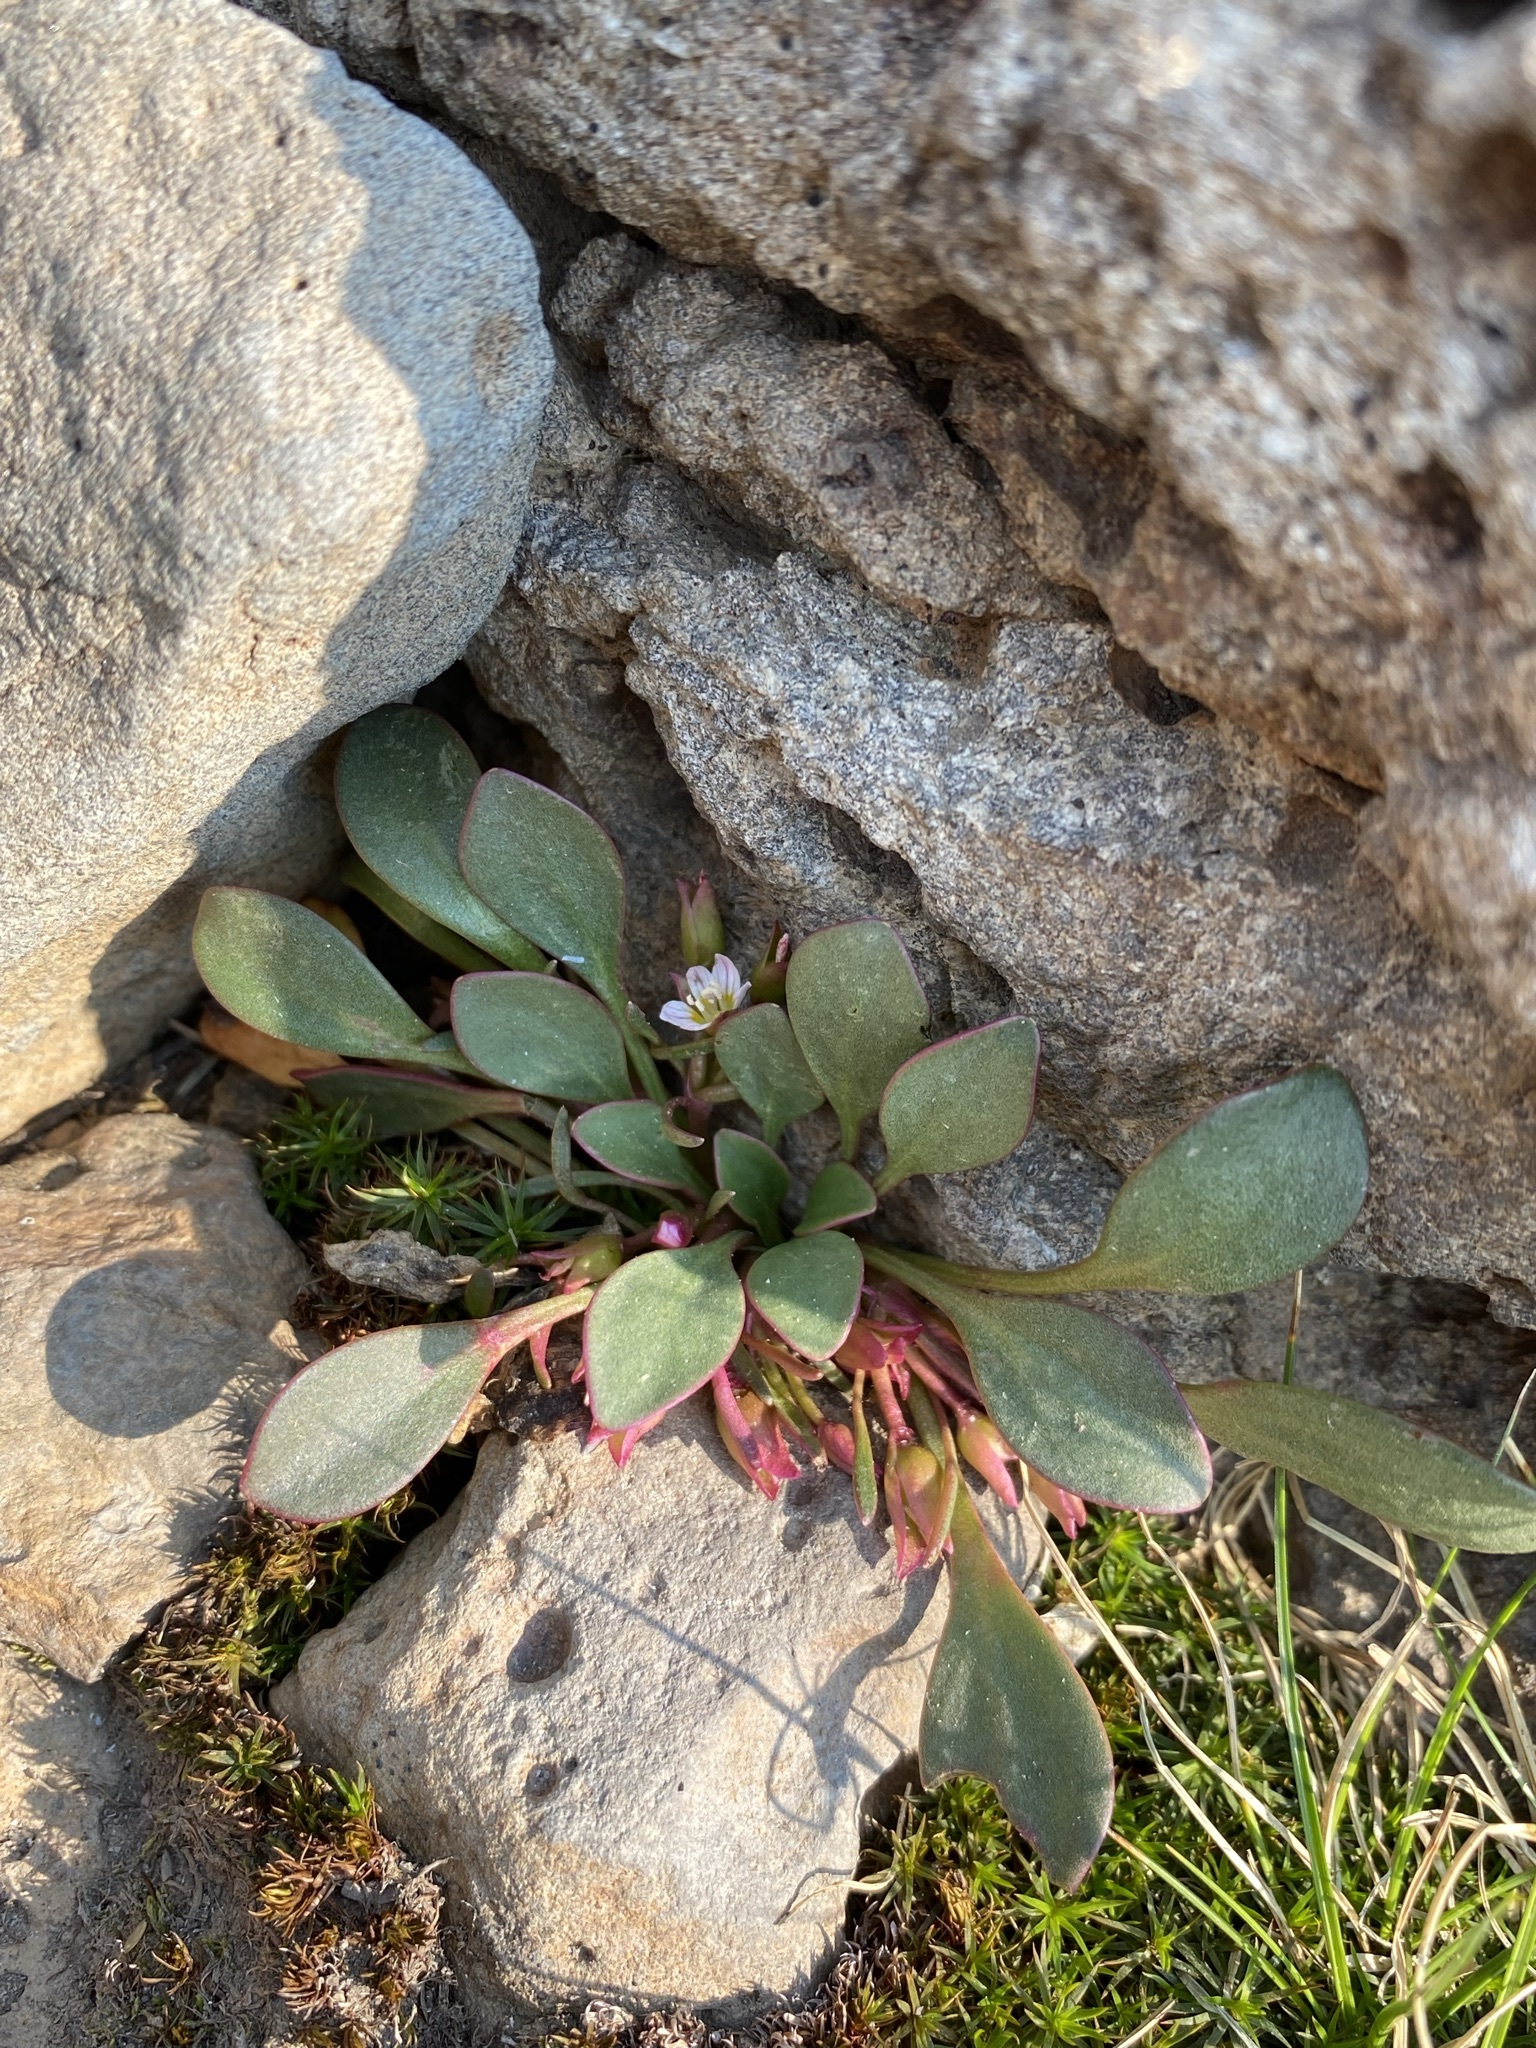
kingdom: Plantae
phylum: Tracheophyta
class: Magnoliopsida
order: Caryophyllales
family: Montiaceae
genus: Claytonia
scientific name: Claytonia megarhiza
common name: Alpine spring beauty
